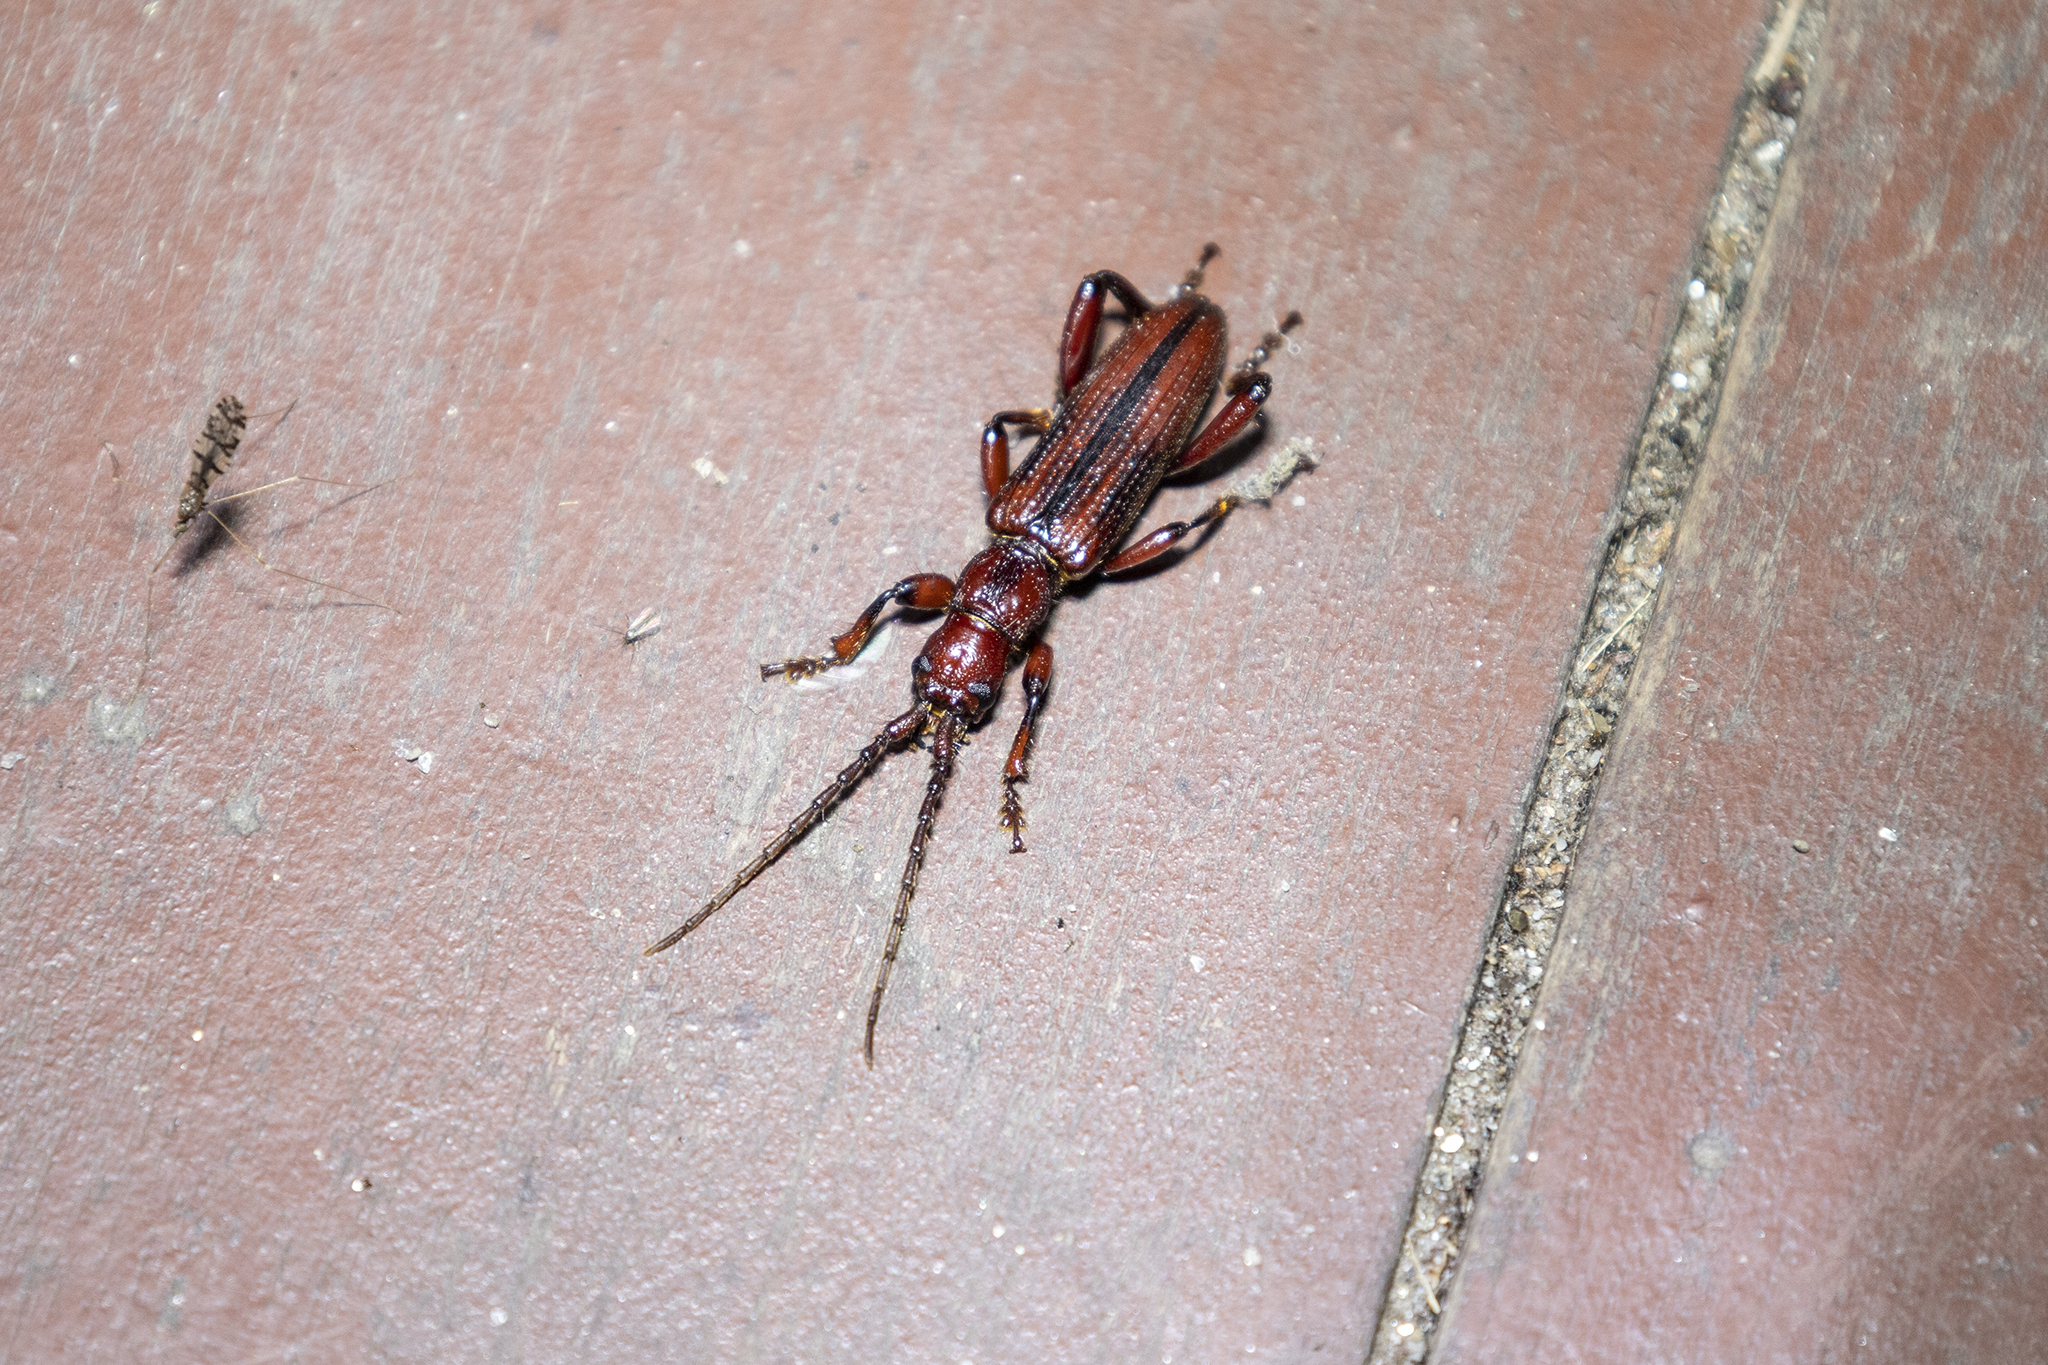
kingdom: Animalia
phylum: Arthropoda
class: Insecta
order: Coleoptera
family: Cerambycidae
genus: Dynamostes
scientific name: Dynamostes audax
